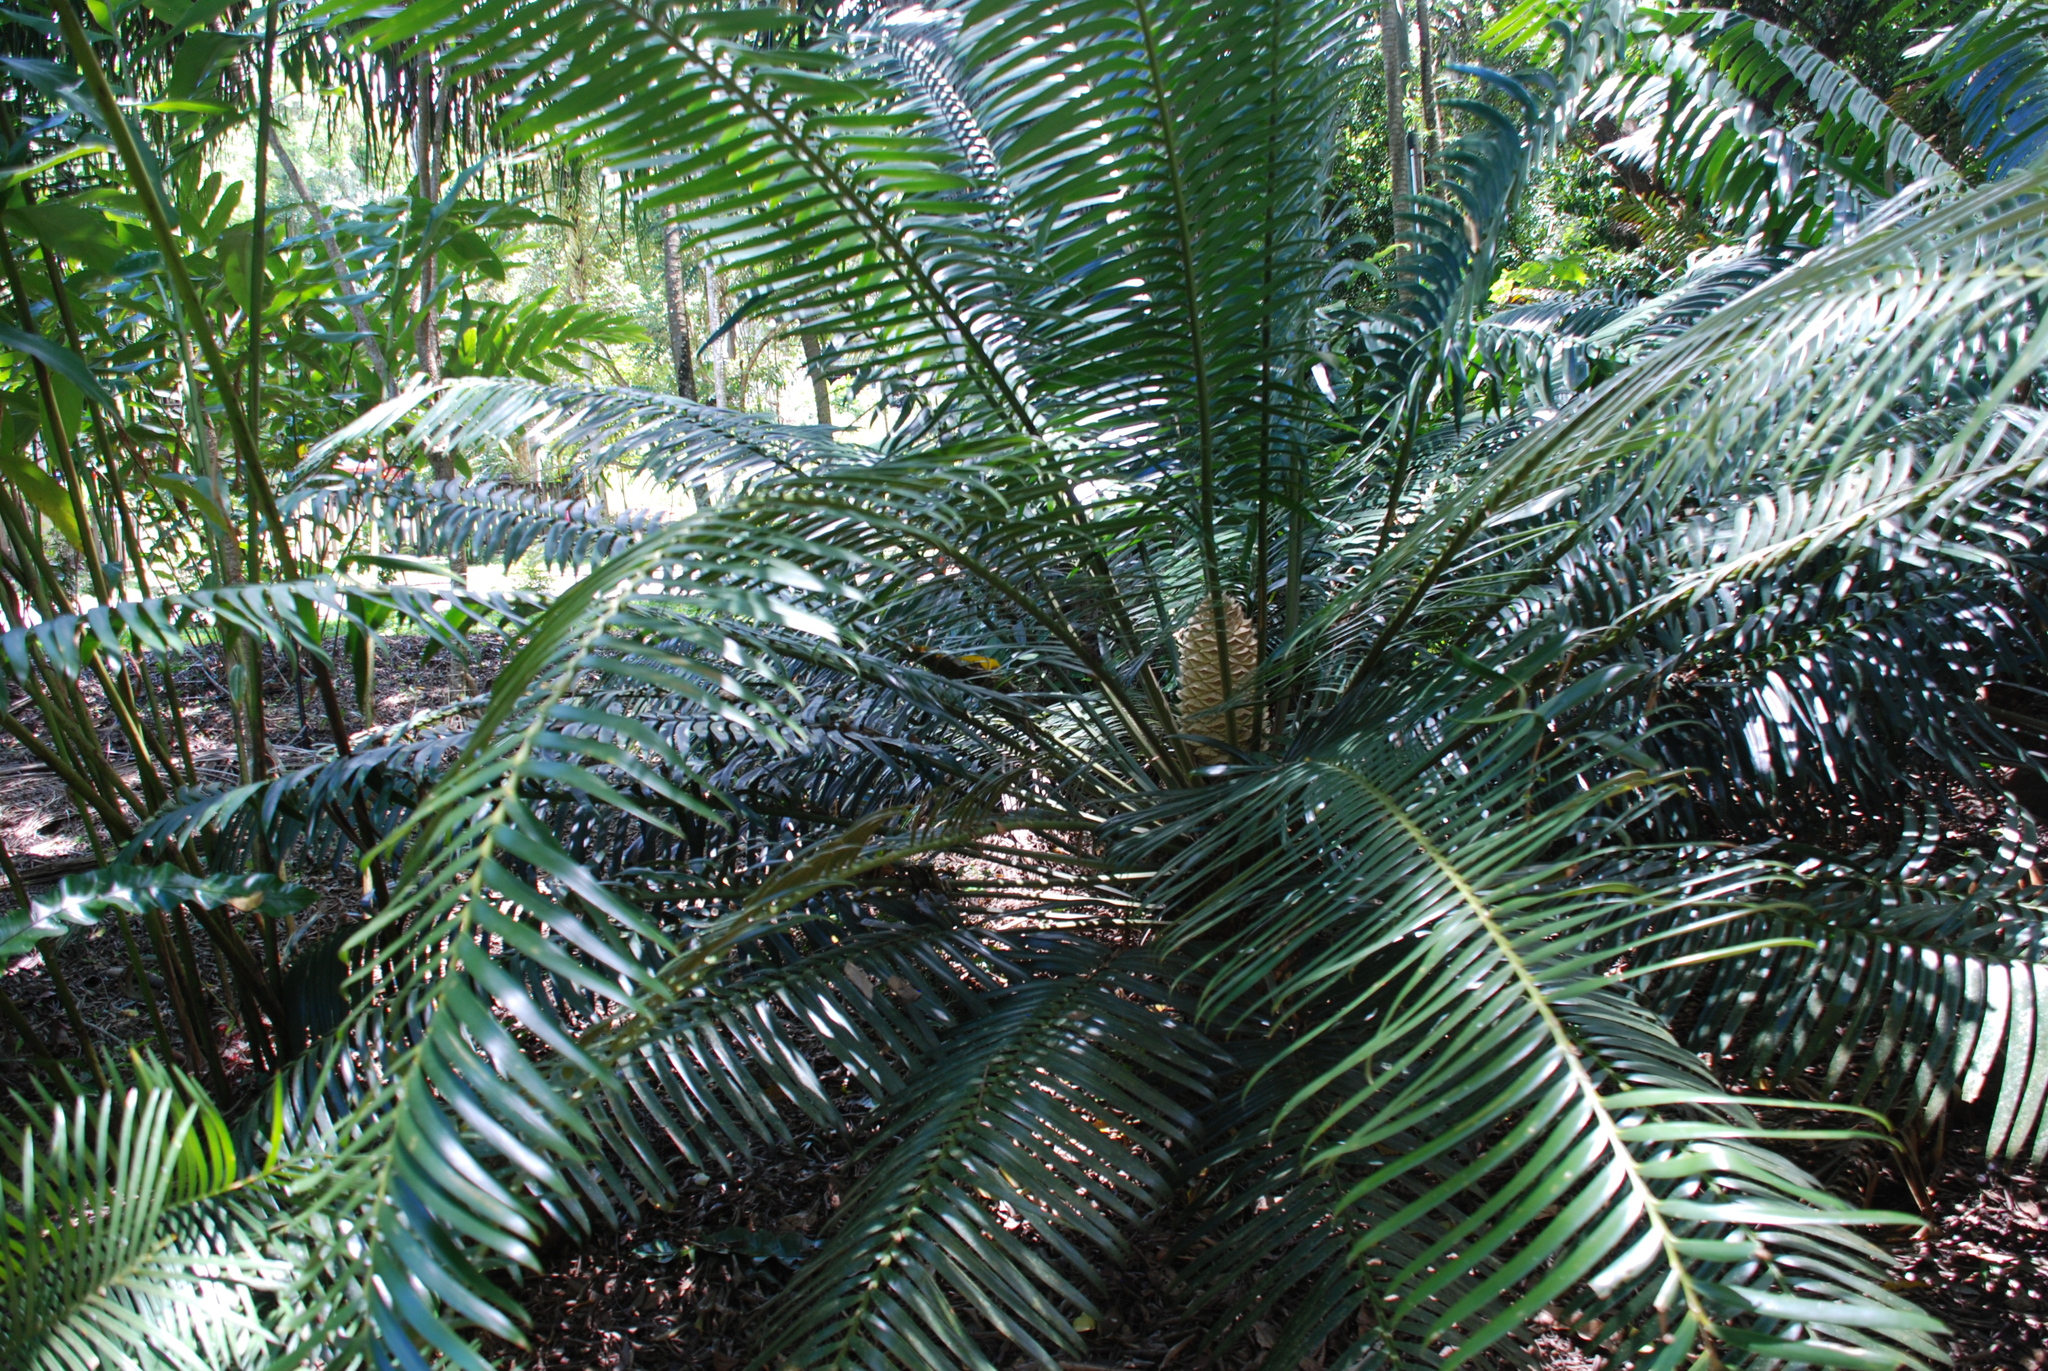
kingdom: Plantae
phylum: Tracheophyta
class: Cycadopsida
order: Cycadales
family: Zamiaceae
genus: Lepidozamia
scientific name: Lepidozamia hopei
